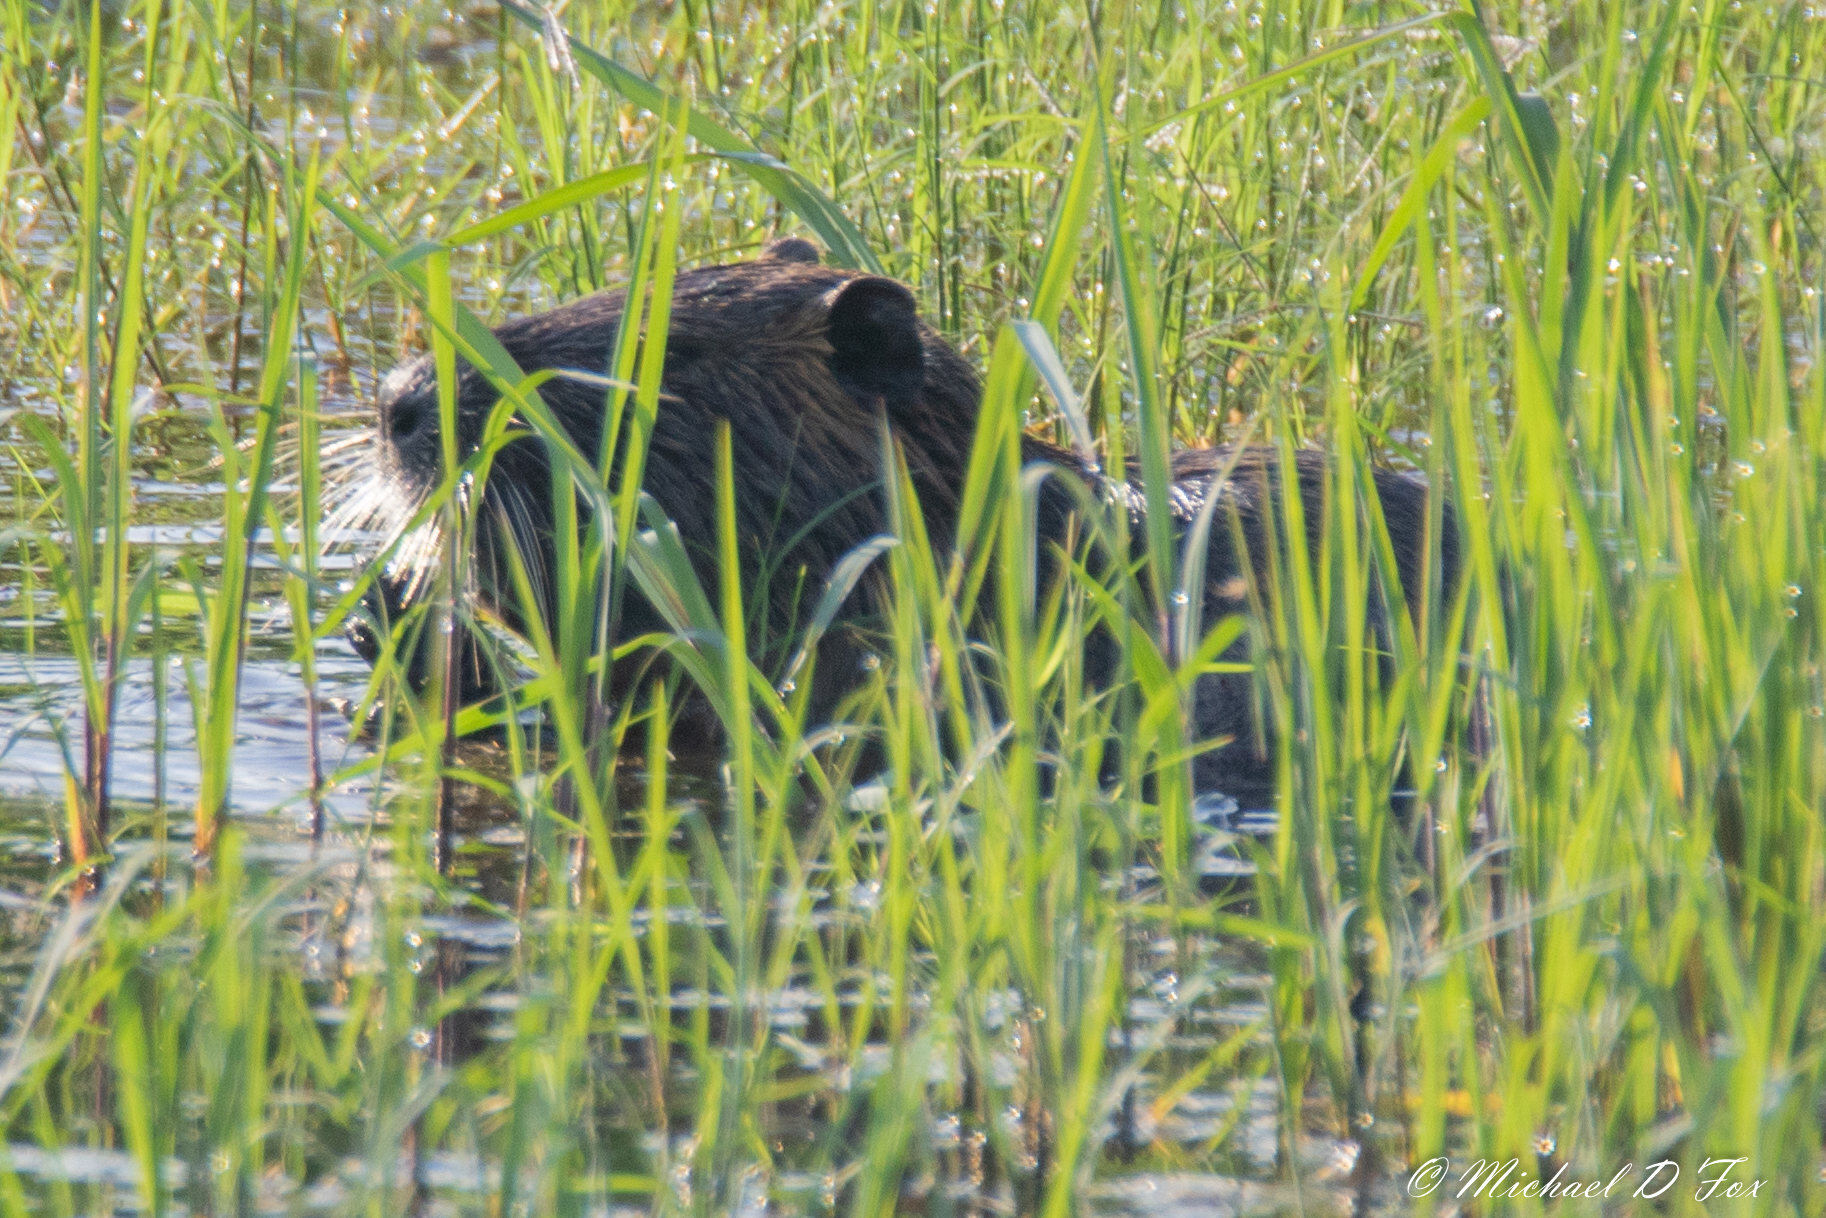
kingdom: Animalia
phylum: Chordata
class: Mammalia
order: Rodentia
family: Myocastoridae
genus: Myocastor
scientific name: Myocastor coypus
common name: Coypu
